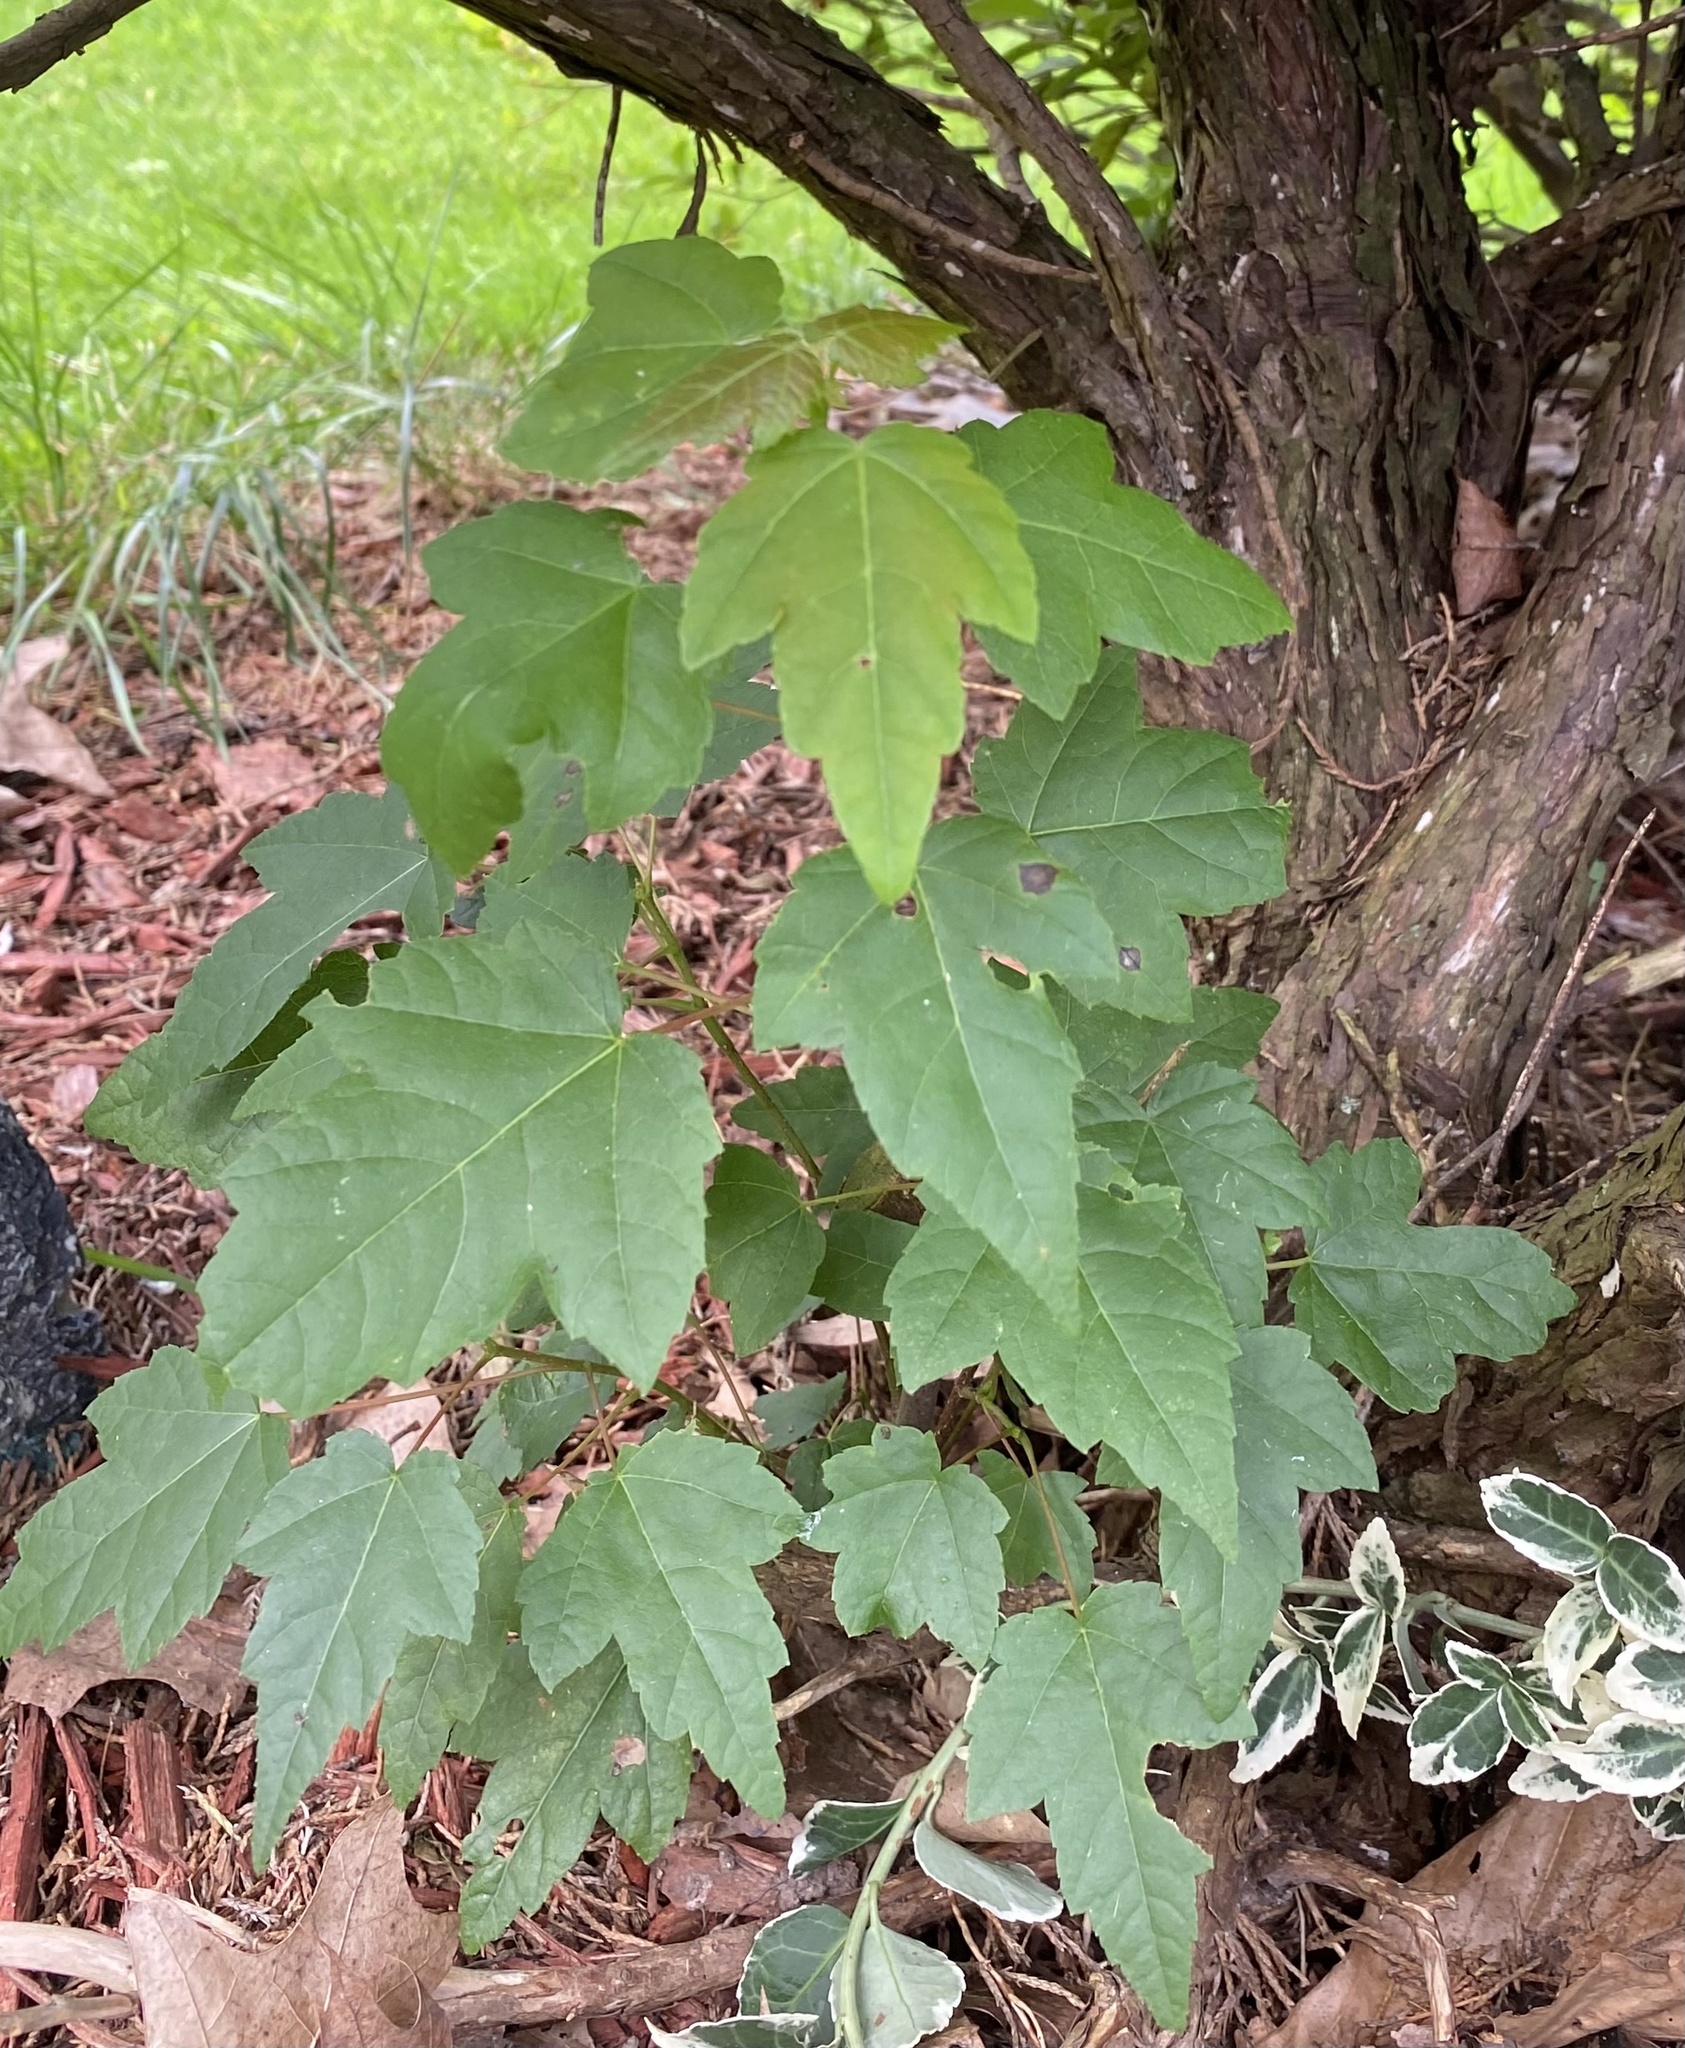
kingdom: Plantae
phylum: Tracheophyta
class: Magnoliopsida
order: Sapindales
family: Sapindaceae
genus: Acer
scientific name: Acer rubrum
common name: Red maple
